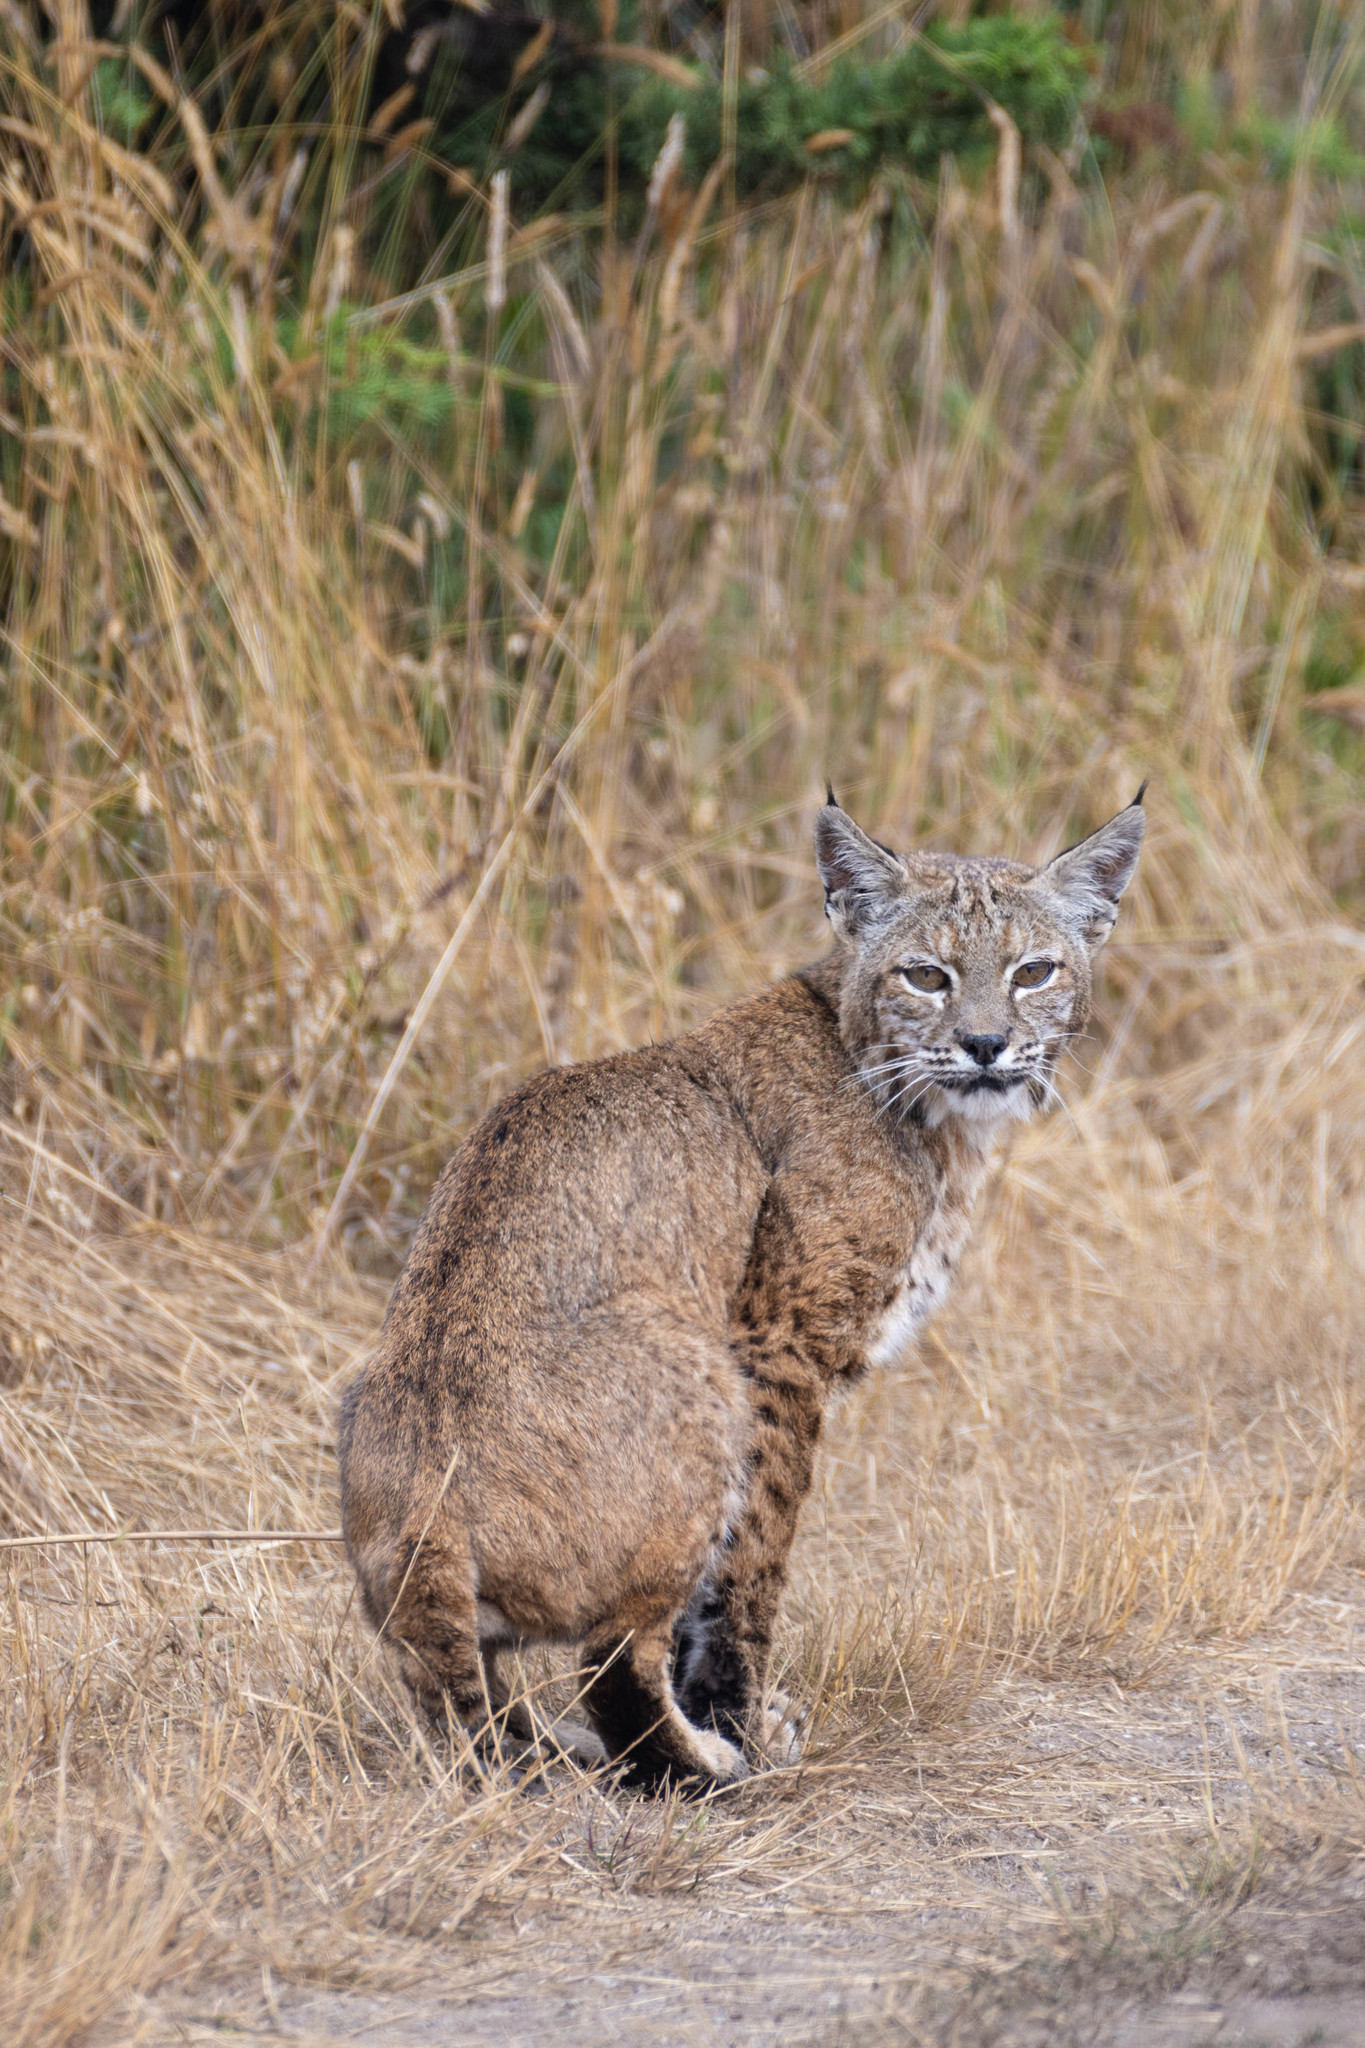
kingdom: Animalia
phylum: Chordata
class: Mammalia
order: Carnivora
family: Felidae
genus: Lynx
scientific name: Lynx rufus
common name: Bobcat
